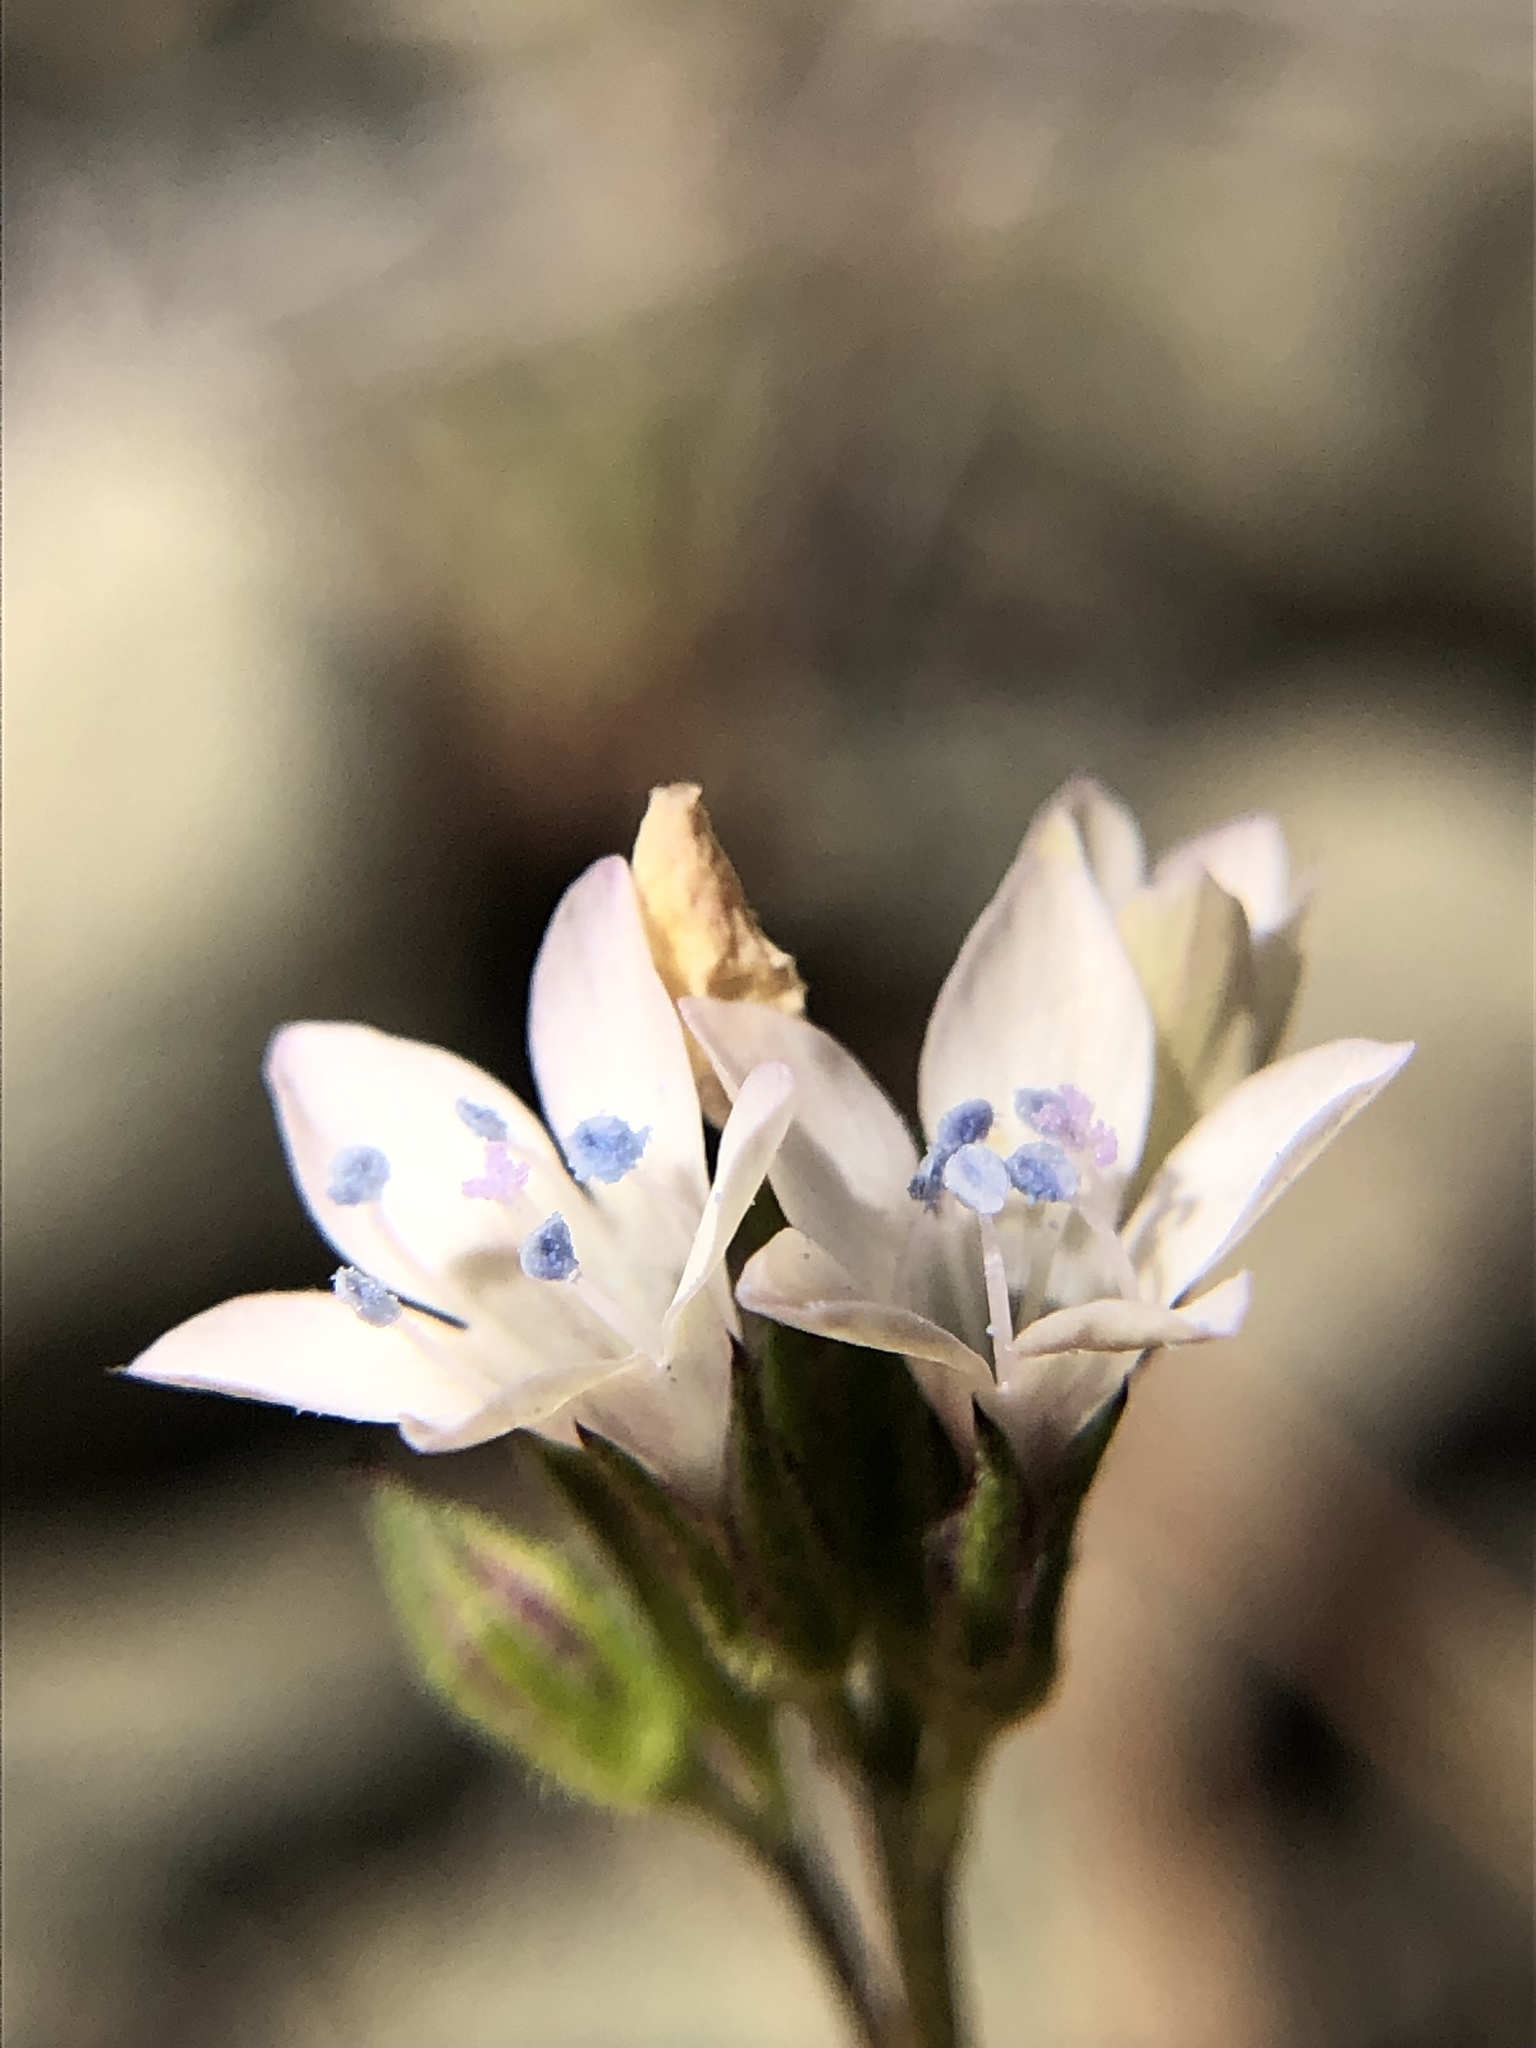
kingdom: Plantae
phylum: Tracheophyta
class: Magnoliopsida
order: Ericales
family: Polemoniaceae
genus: Gilia
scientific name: Gilia achilleifolia
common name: California gily-flower
